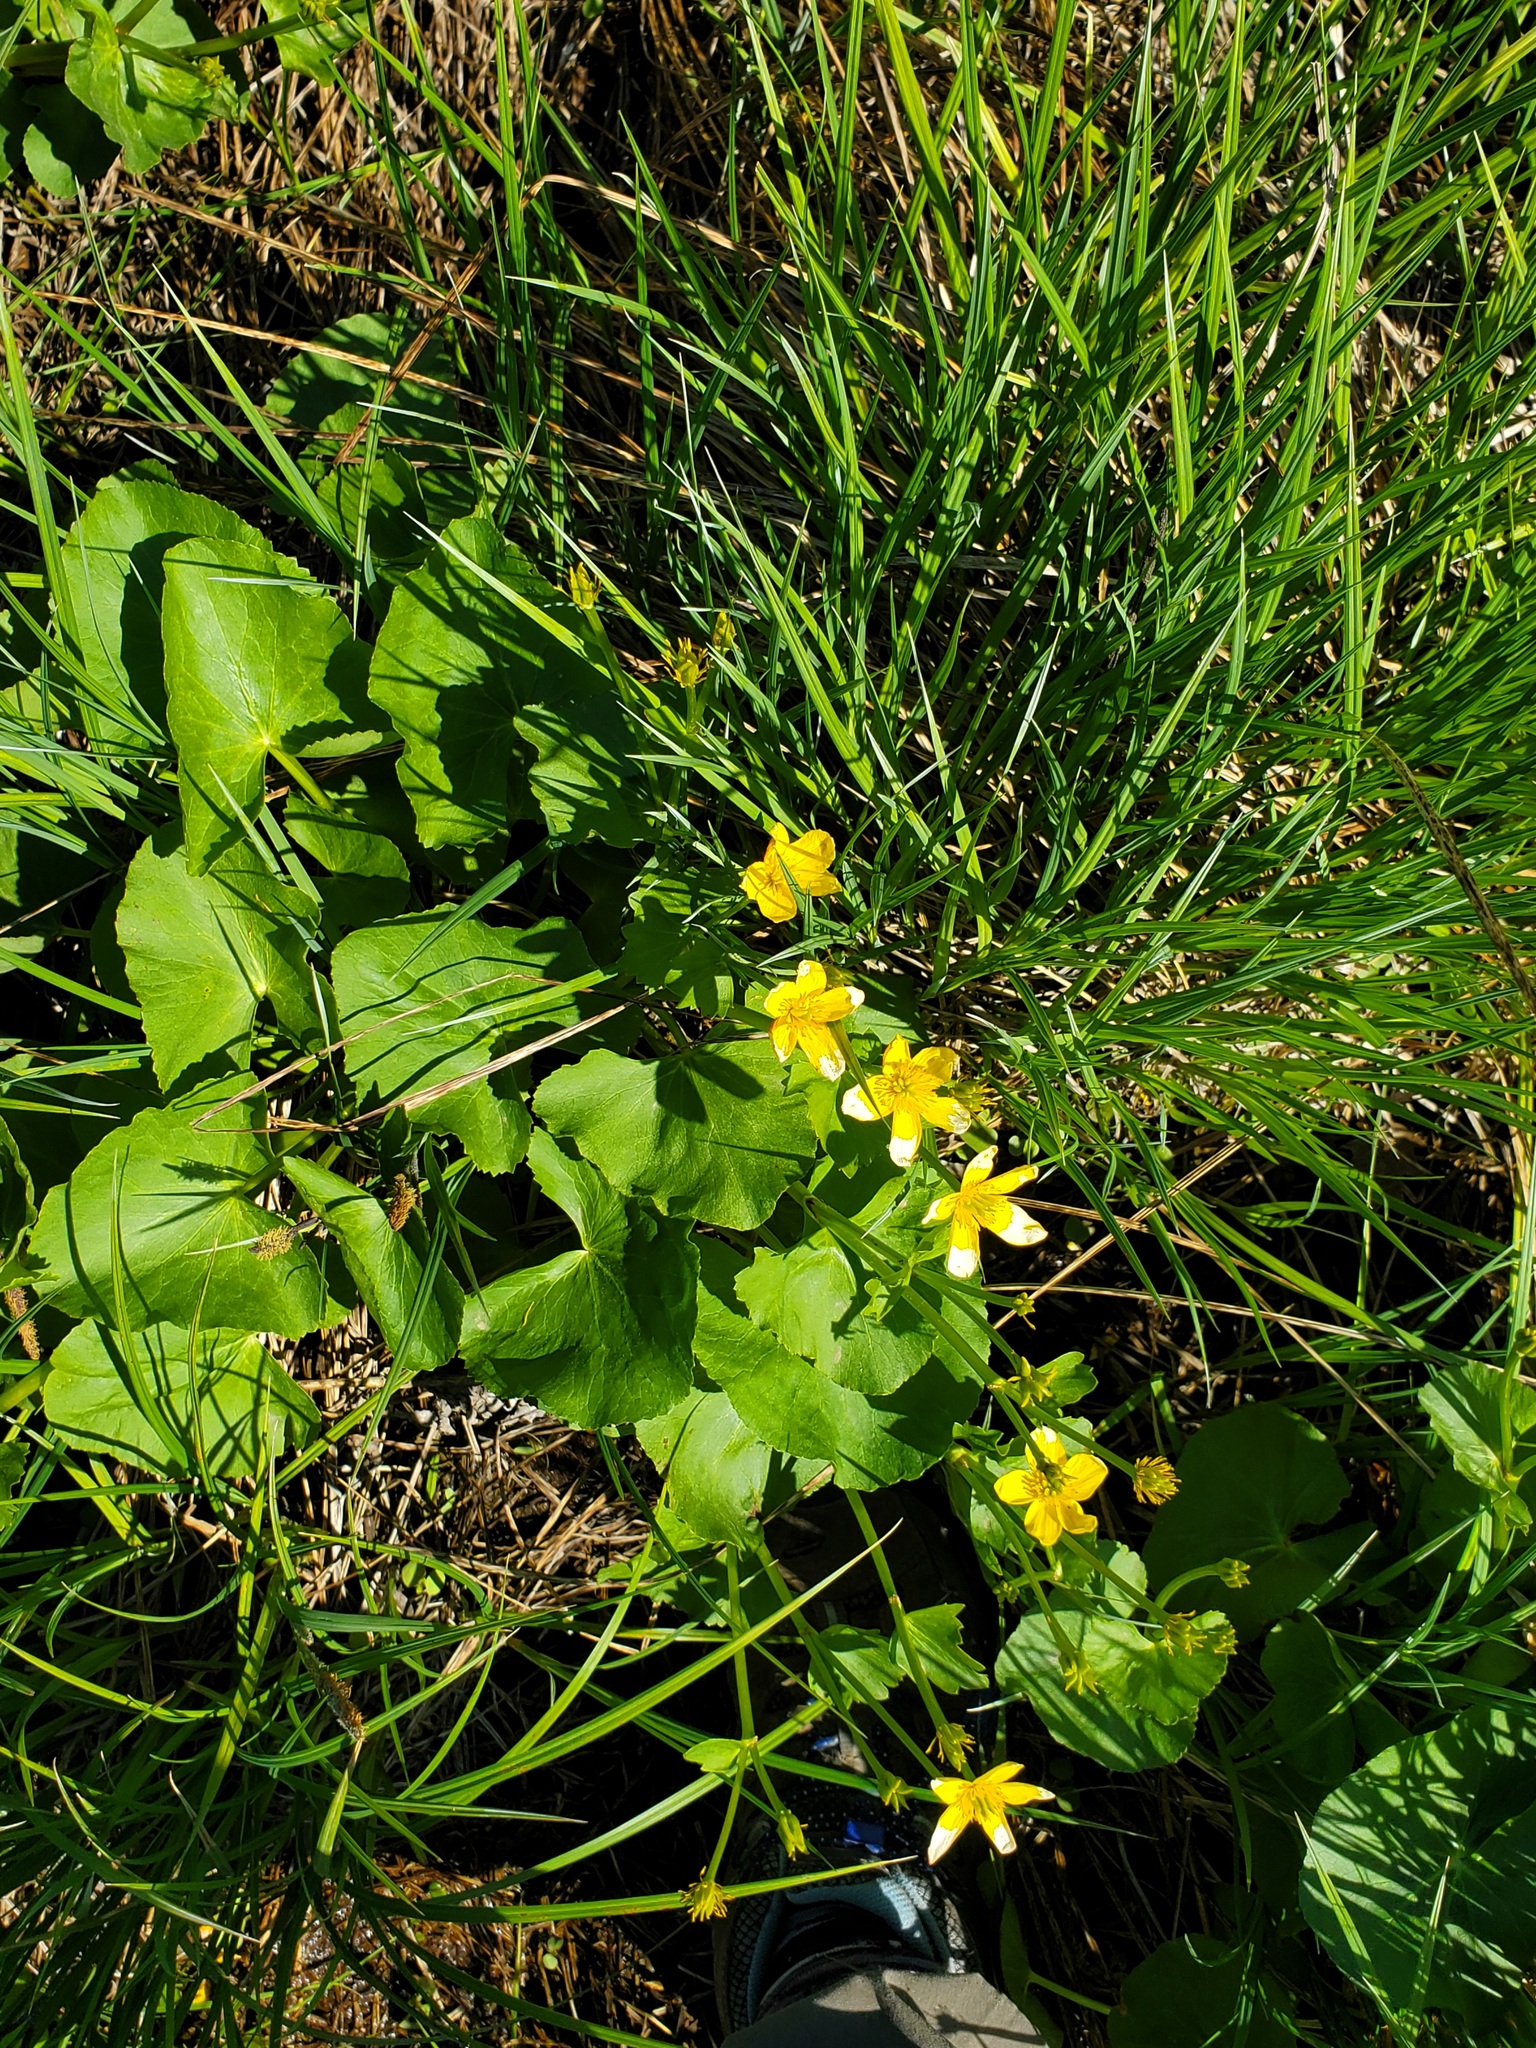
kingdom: Plantae
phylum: Tracheophyta
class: Magnoliopsida
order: Ranunculales
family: Ranunculaceae
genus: Caltha
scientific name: Caltha palustris
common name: Marsh marigold
